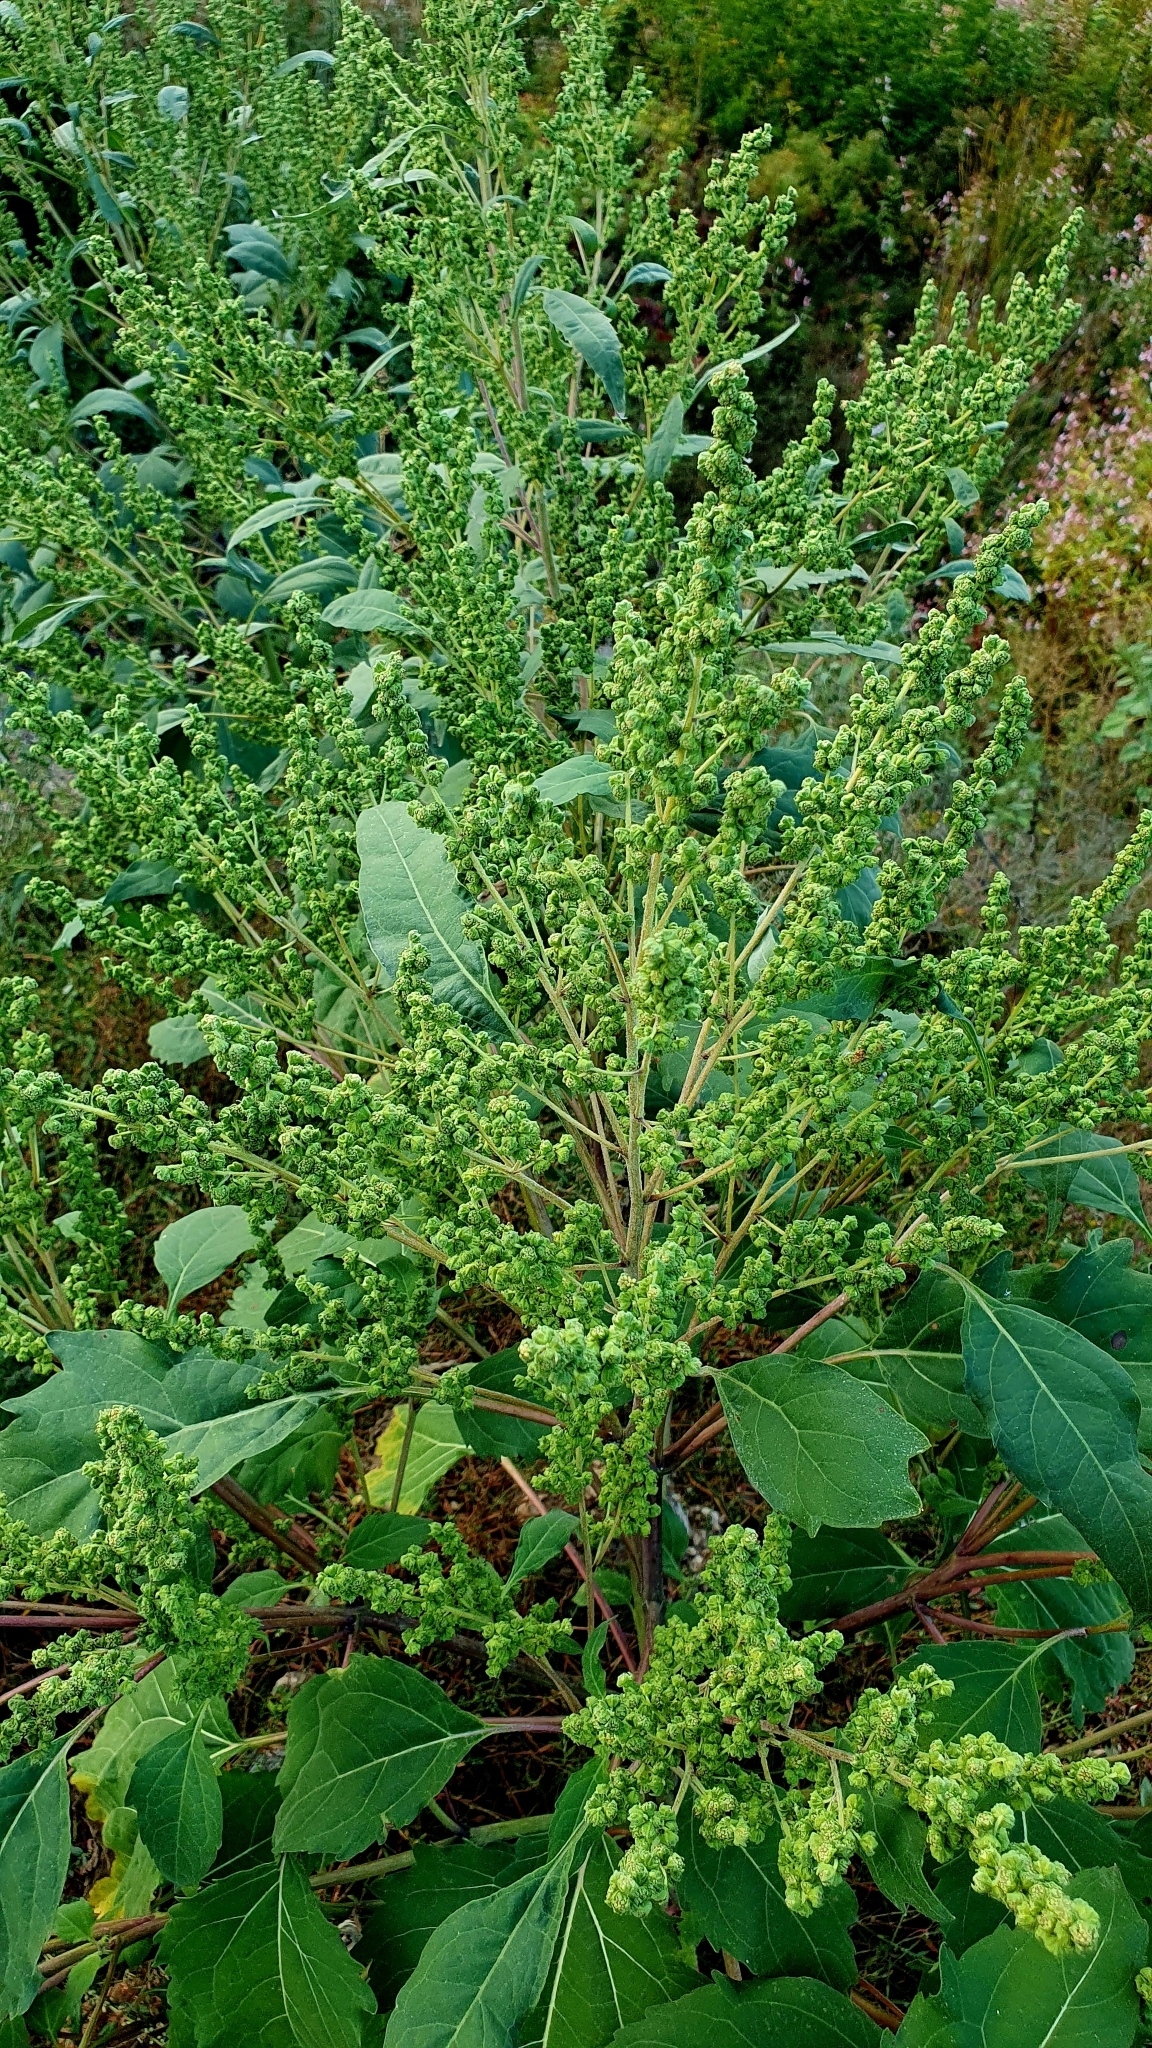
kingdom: Plantae
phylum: Tracheophyta
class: Magnoliopsida
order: Asterales
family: Asteraceae
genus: Cyclachaena
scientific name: Cyclachaena xanthiifolia
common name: Giant sumpweed
